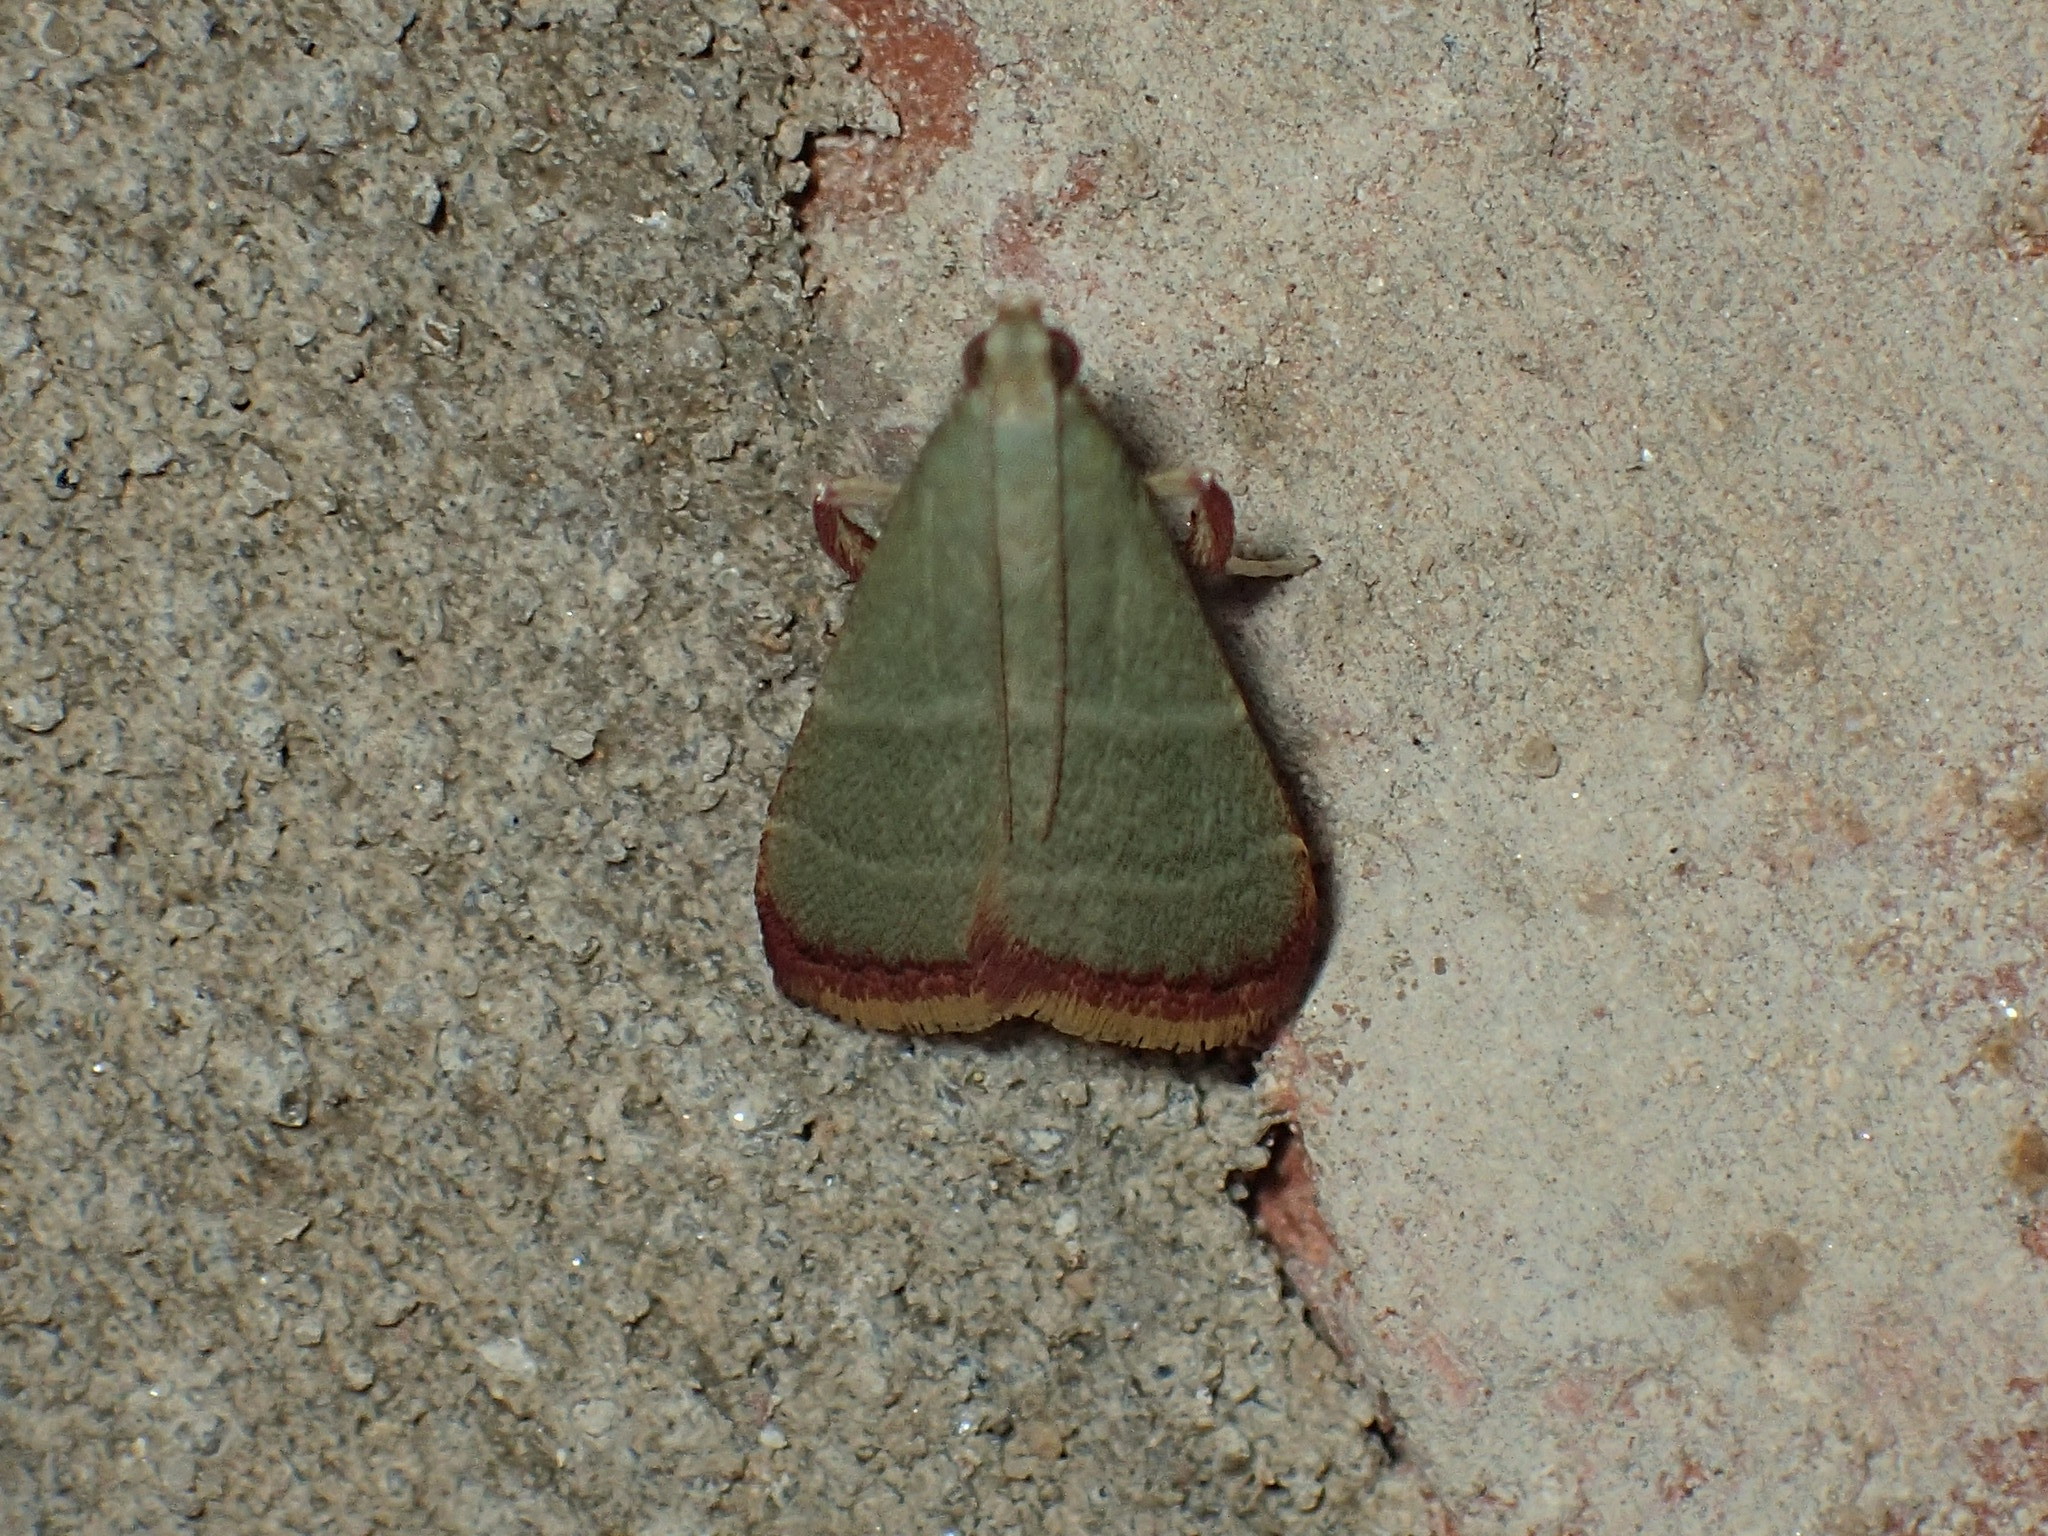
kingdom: Animalia
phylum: Arthropoda
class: Insecta
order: Lepidoptera
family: Pyralidae
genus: Arta
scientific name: Arta olivalis
